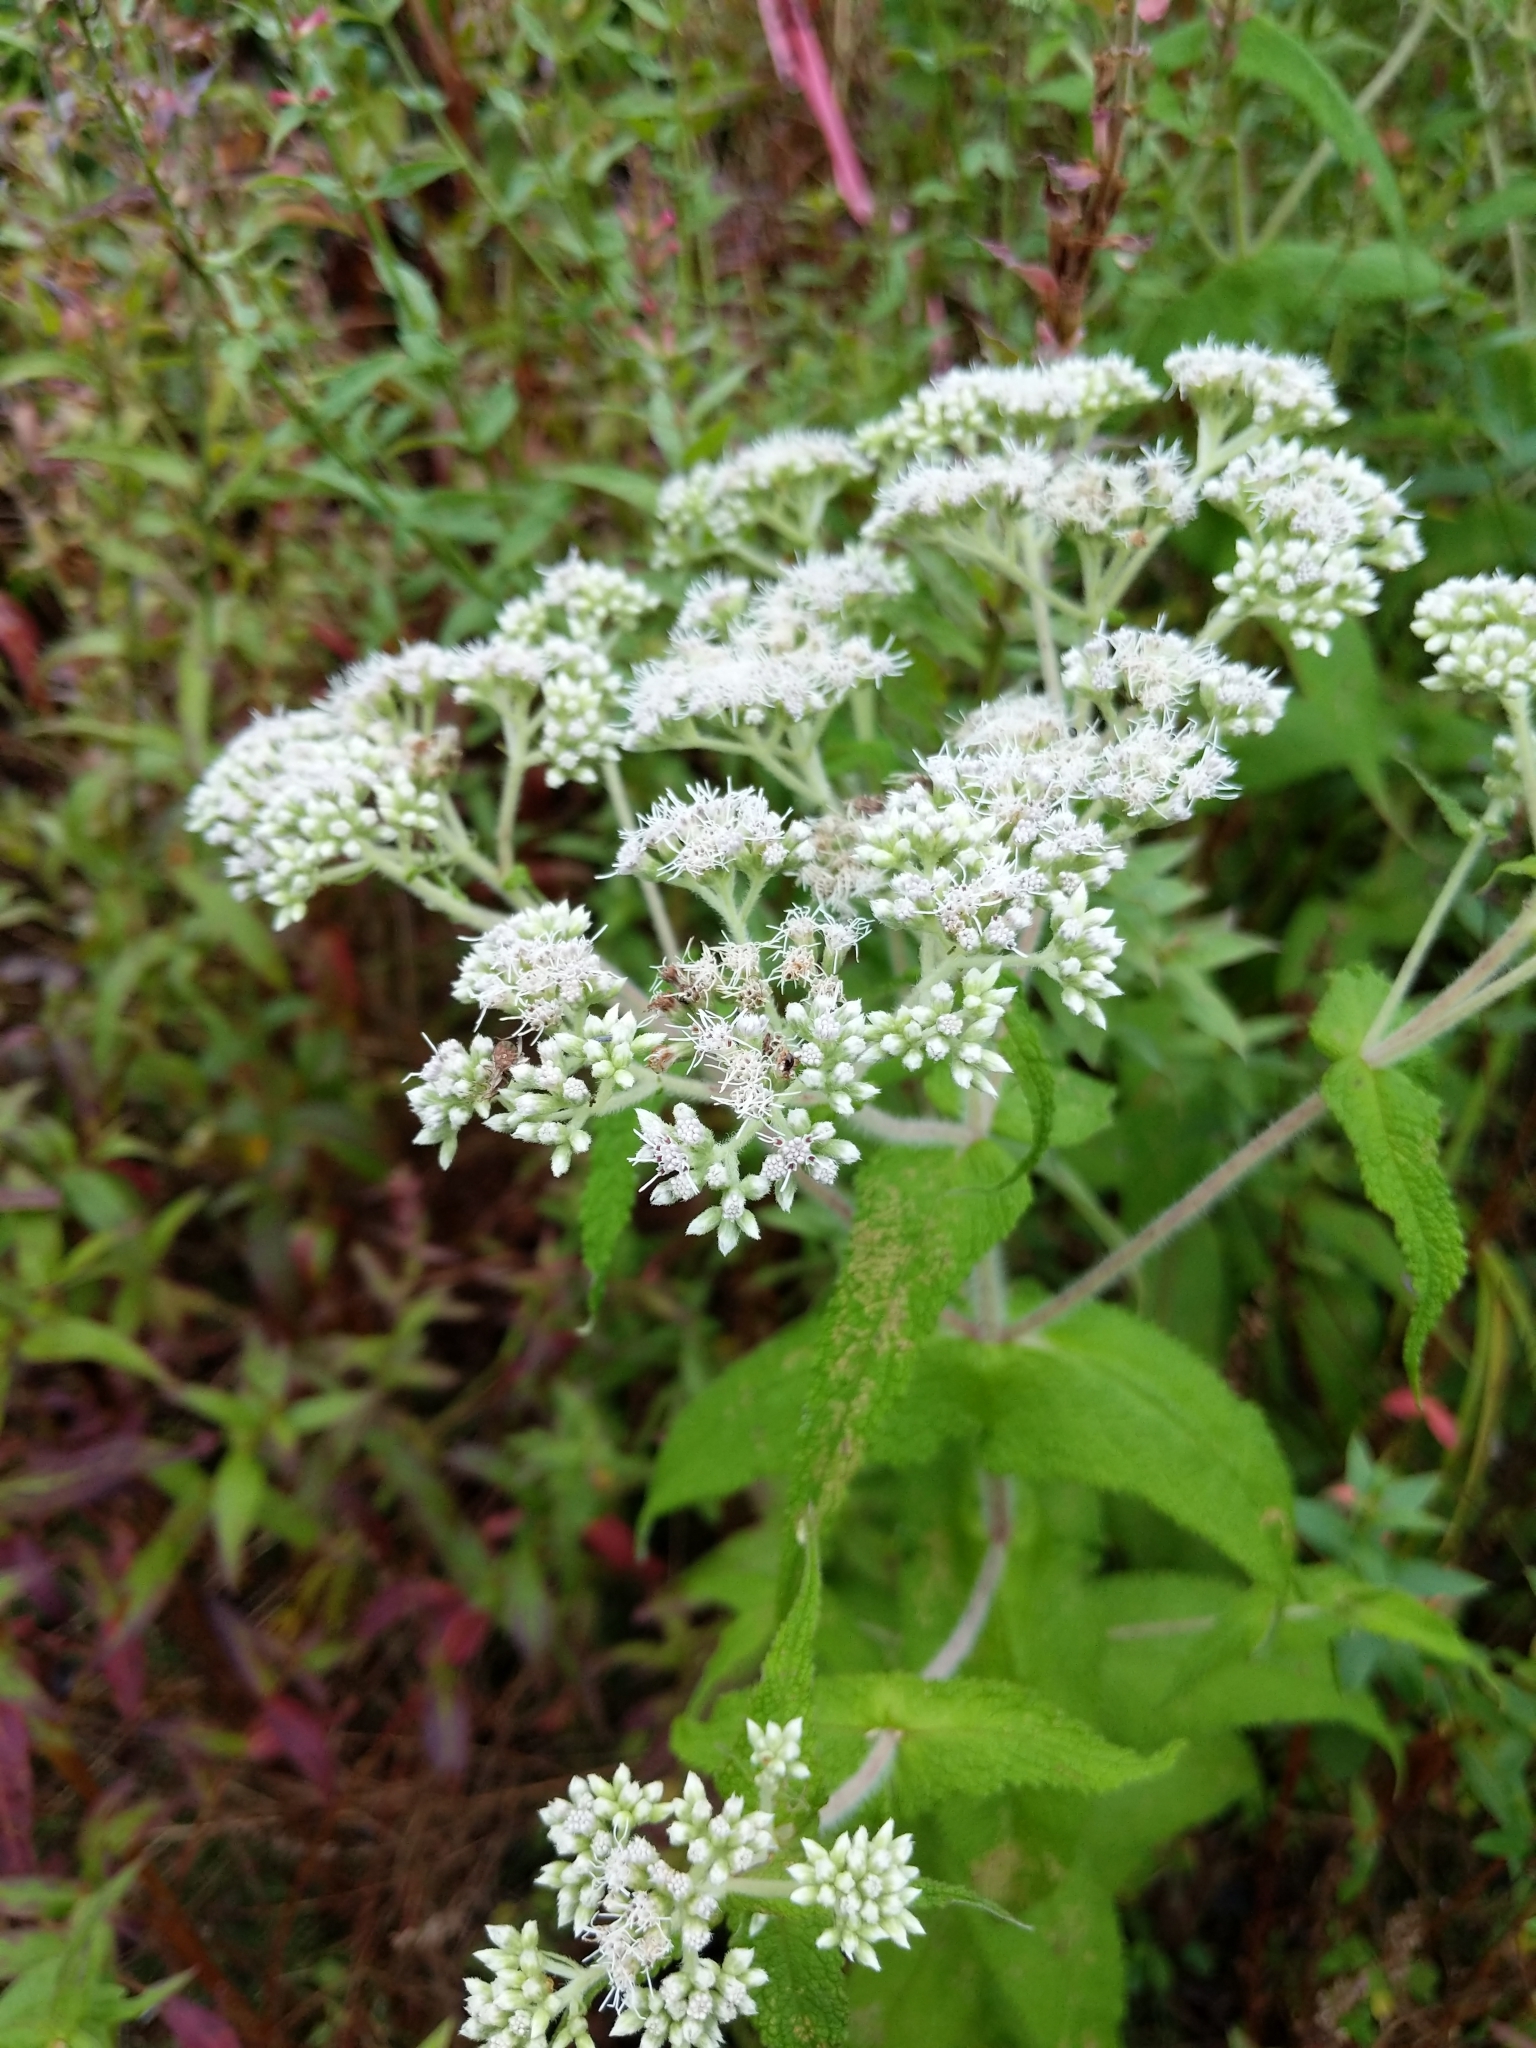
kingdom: Plantae
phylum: Tracheophyta
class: Magnoliopsida
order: Asterales
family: Asteraceae
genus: Eupatorium
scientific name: Eupatorium perfoliatum
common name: Boneset
